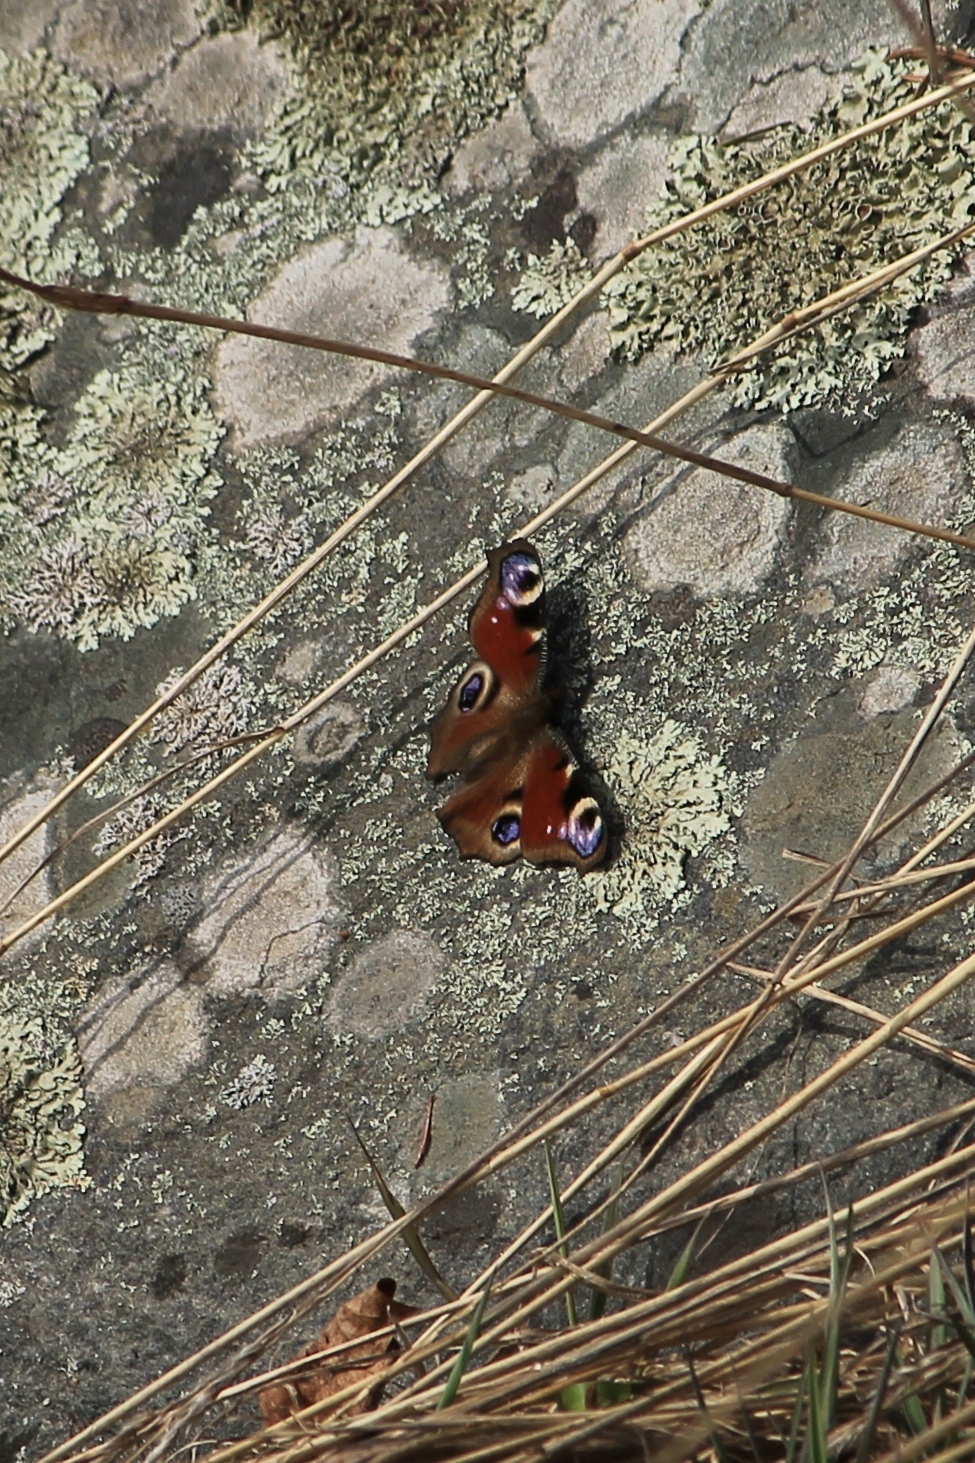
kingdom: Animalia
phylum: Arthropoda
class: Insecta
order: Lepidoptera
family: Nymphalidae
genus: Aglais
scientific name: Aglais io
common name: Peacock
